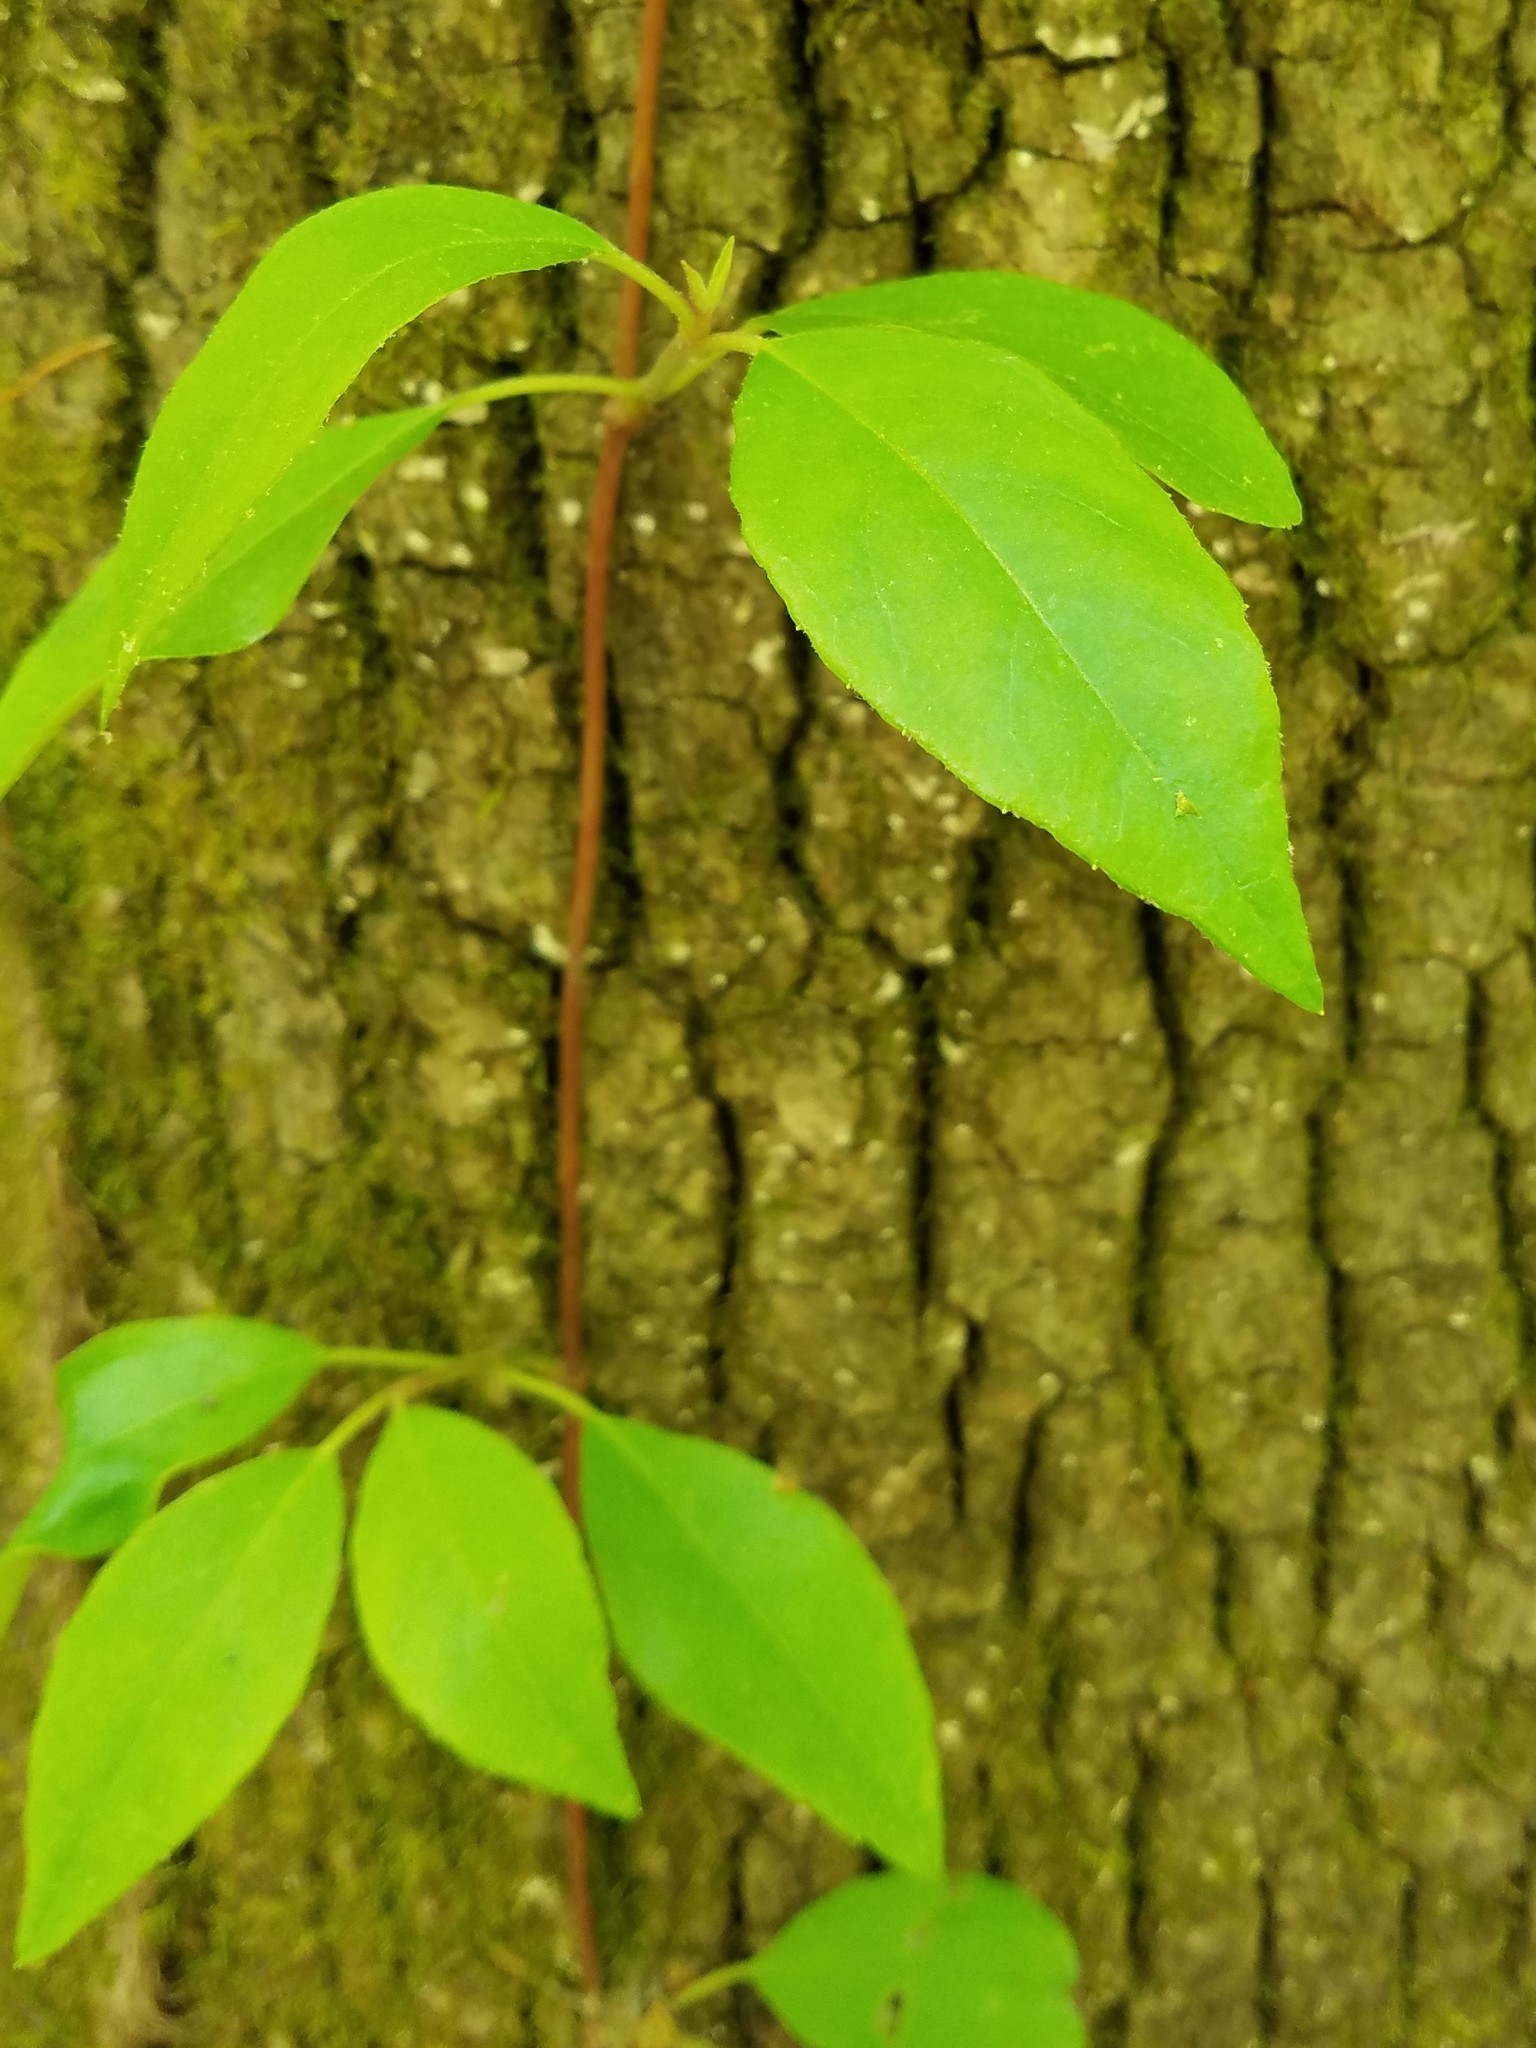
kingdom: Plantae
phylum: Tracheophyta
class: Magnoliopsida
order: Cornales
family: Hydrangeaceae
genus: Hydrangea
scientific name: Hydrangea barbara
